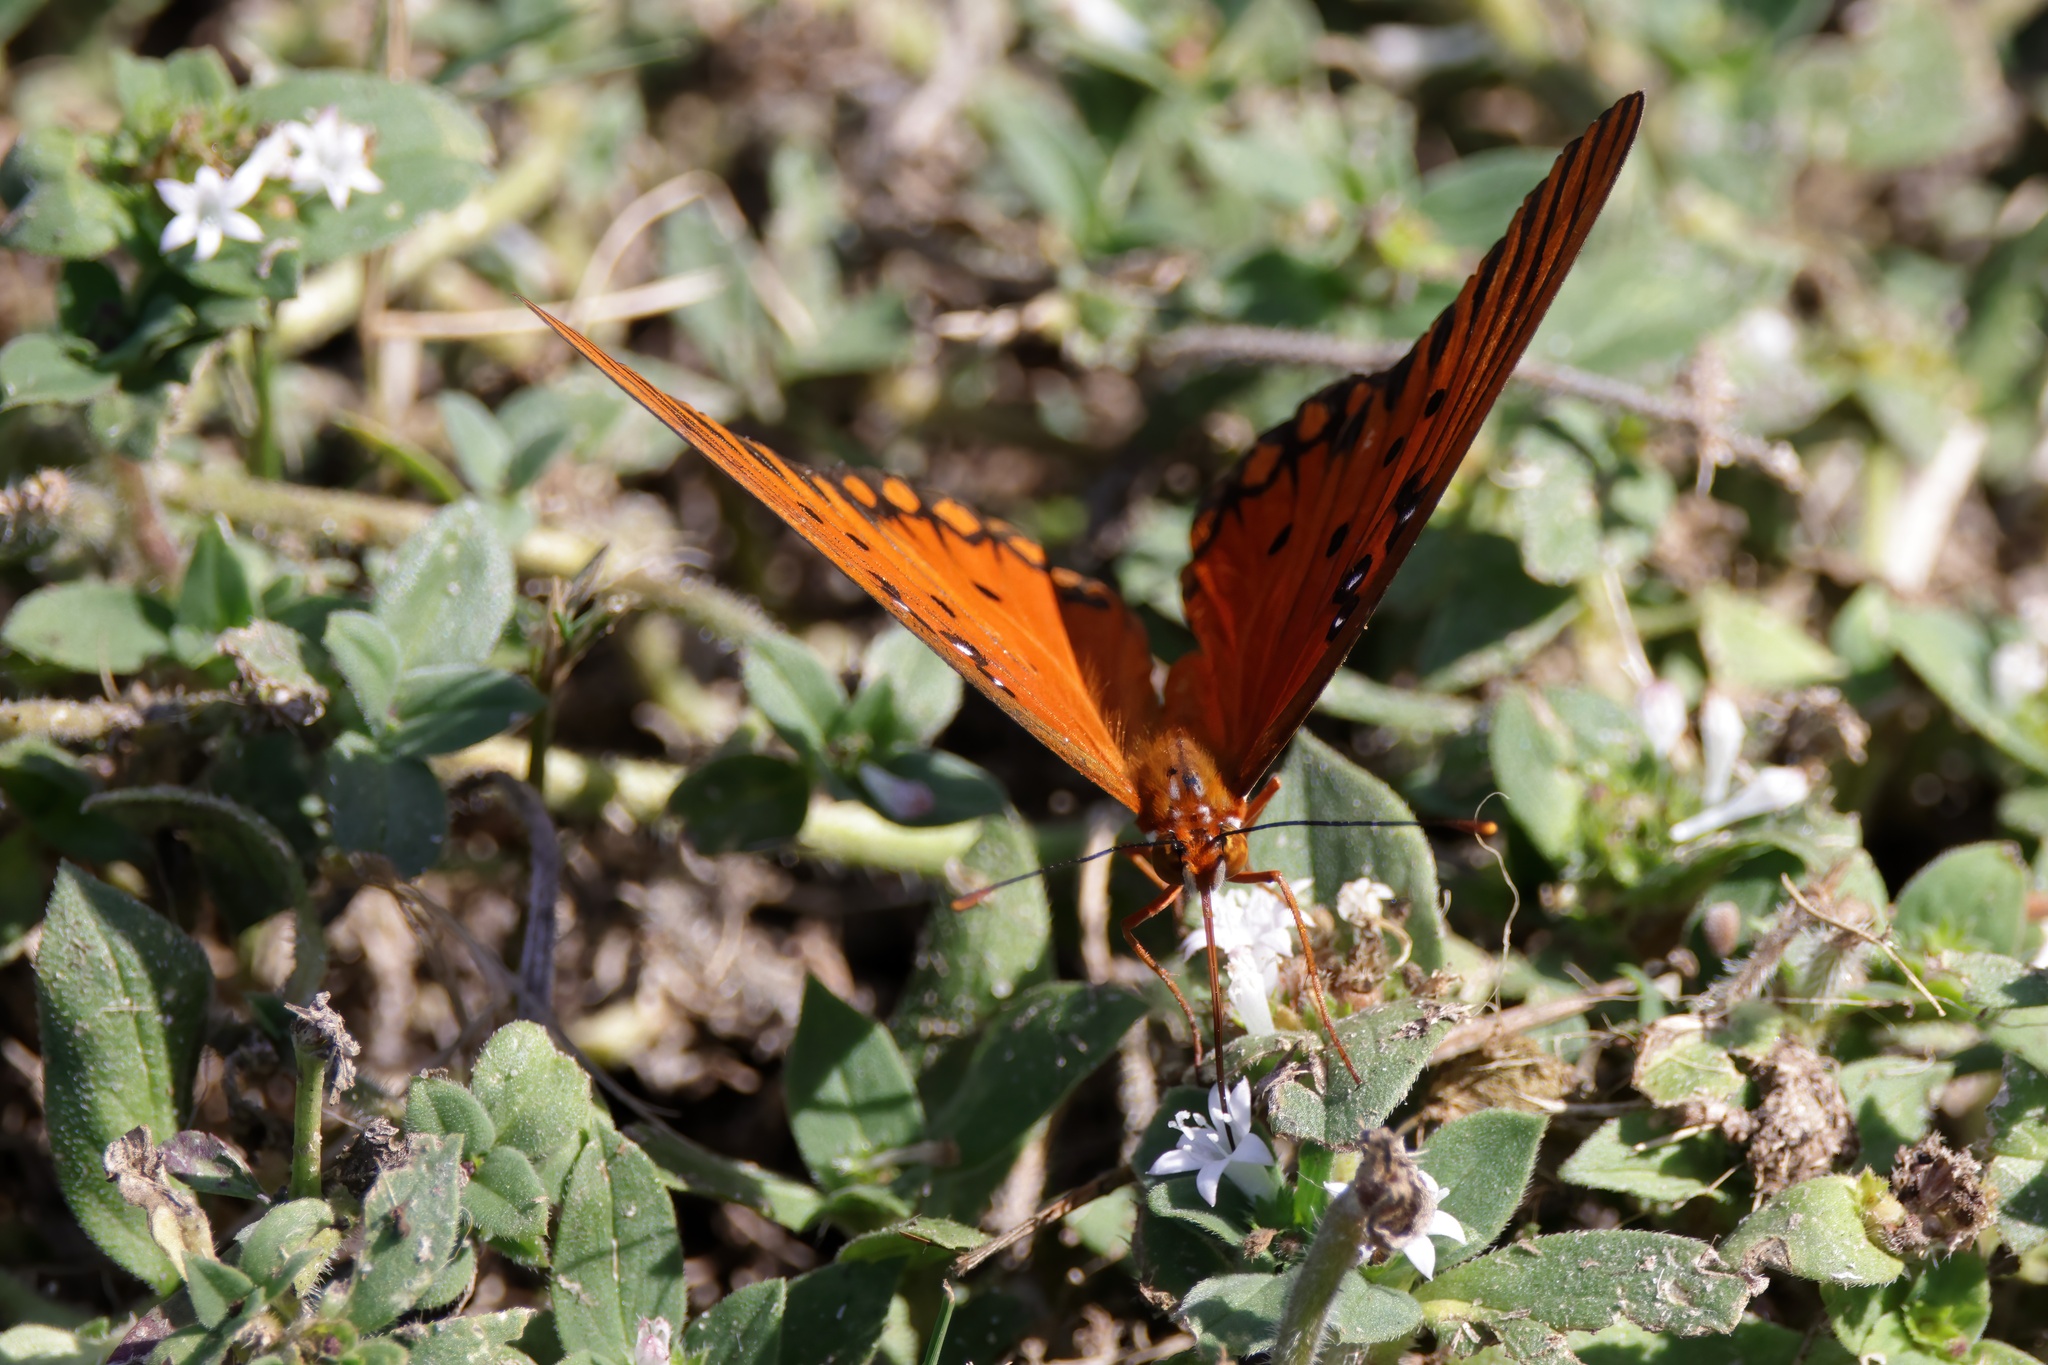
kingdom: Animalia
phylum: Arthropoda
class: Insecta
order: Lepidoptera
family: Nymphalidae
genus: Dione
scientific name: Dione vanillae
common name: Gulf fritillary
